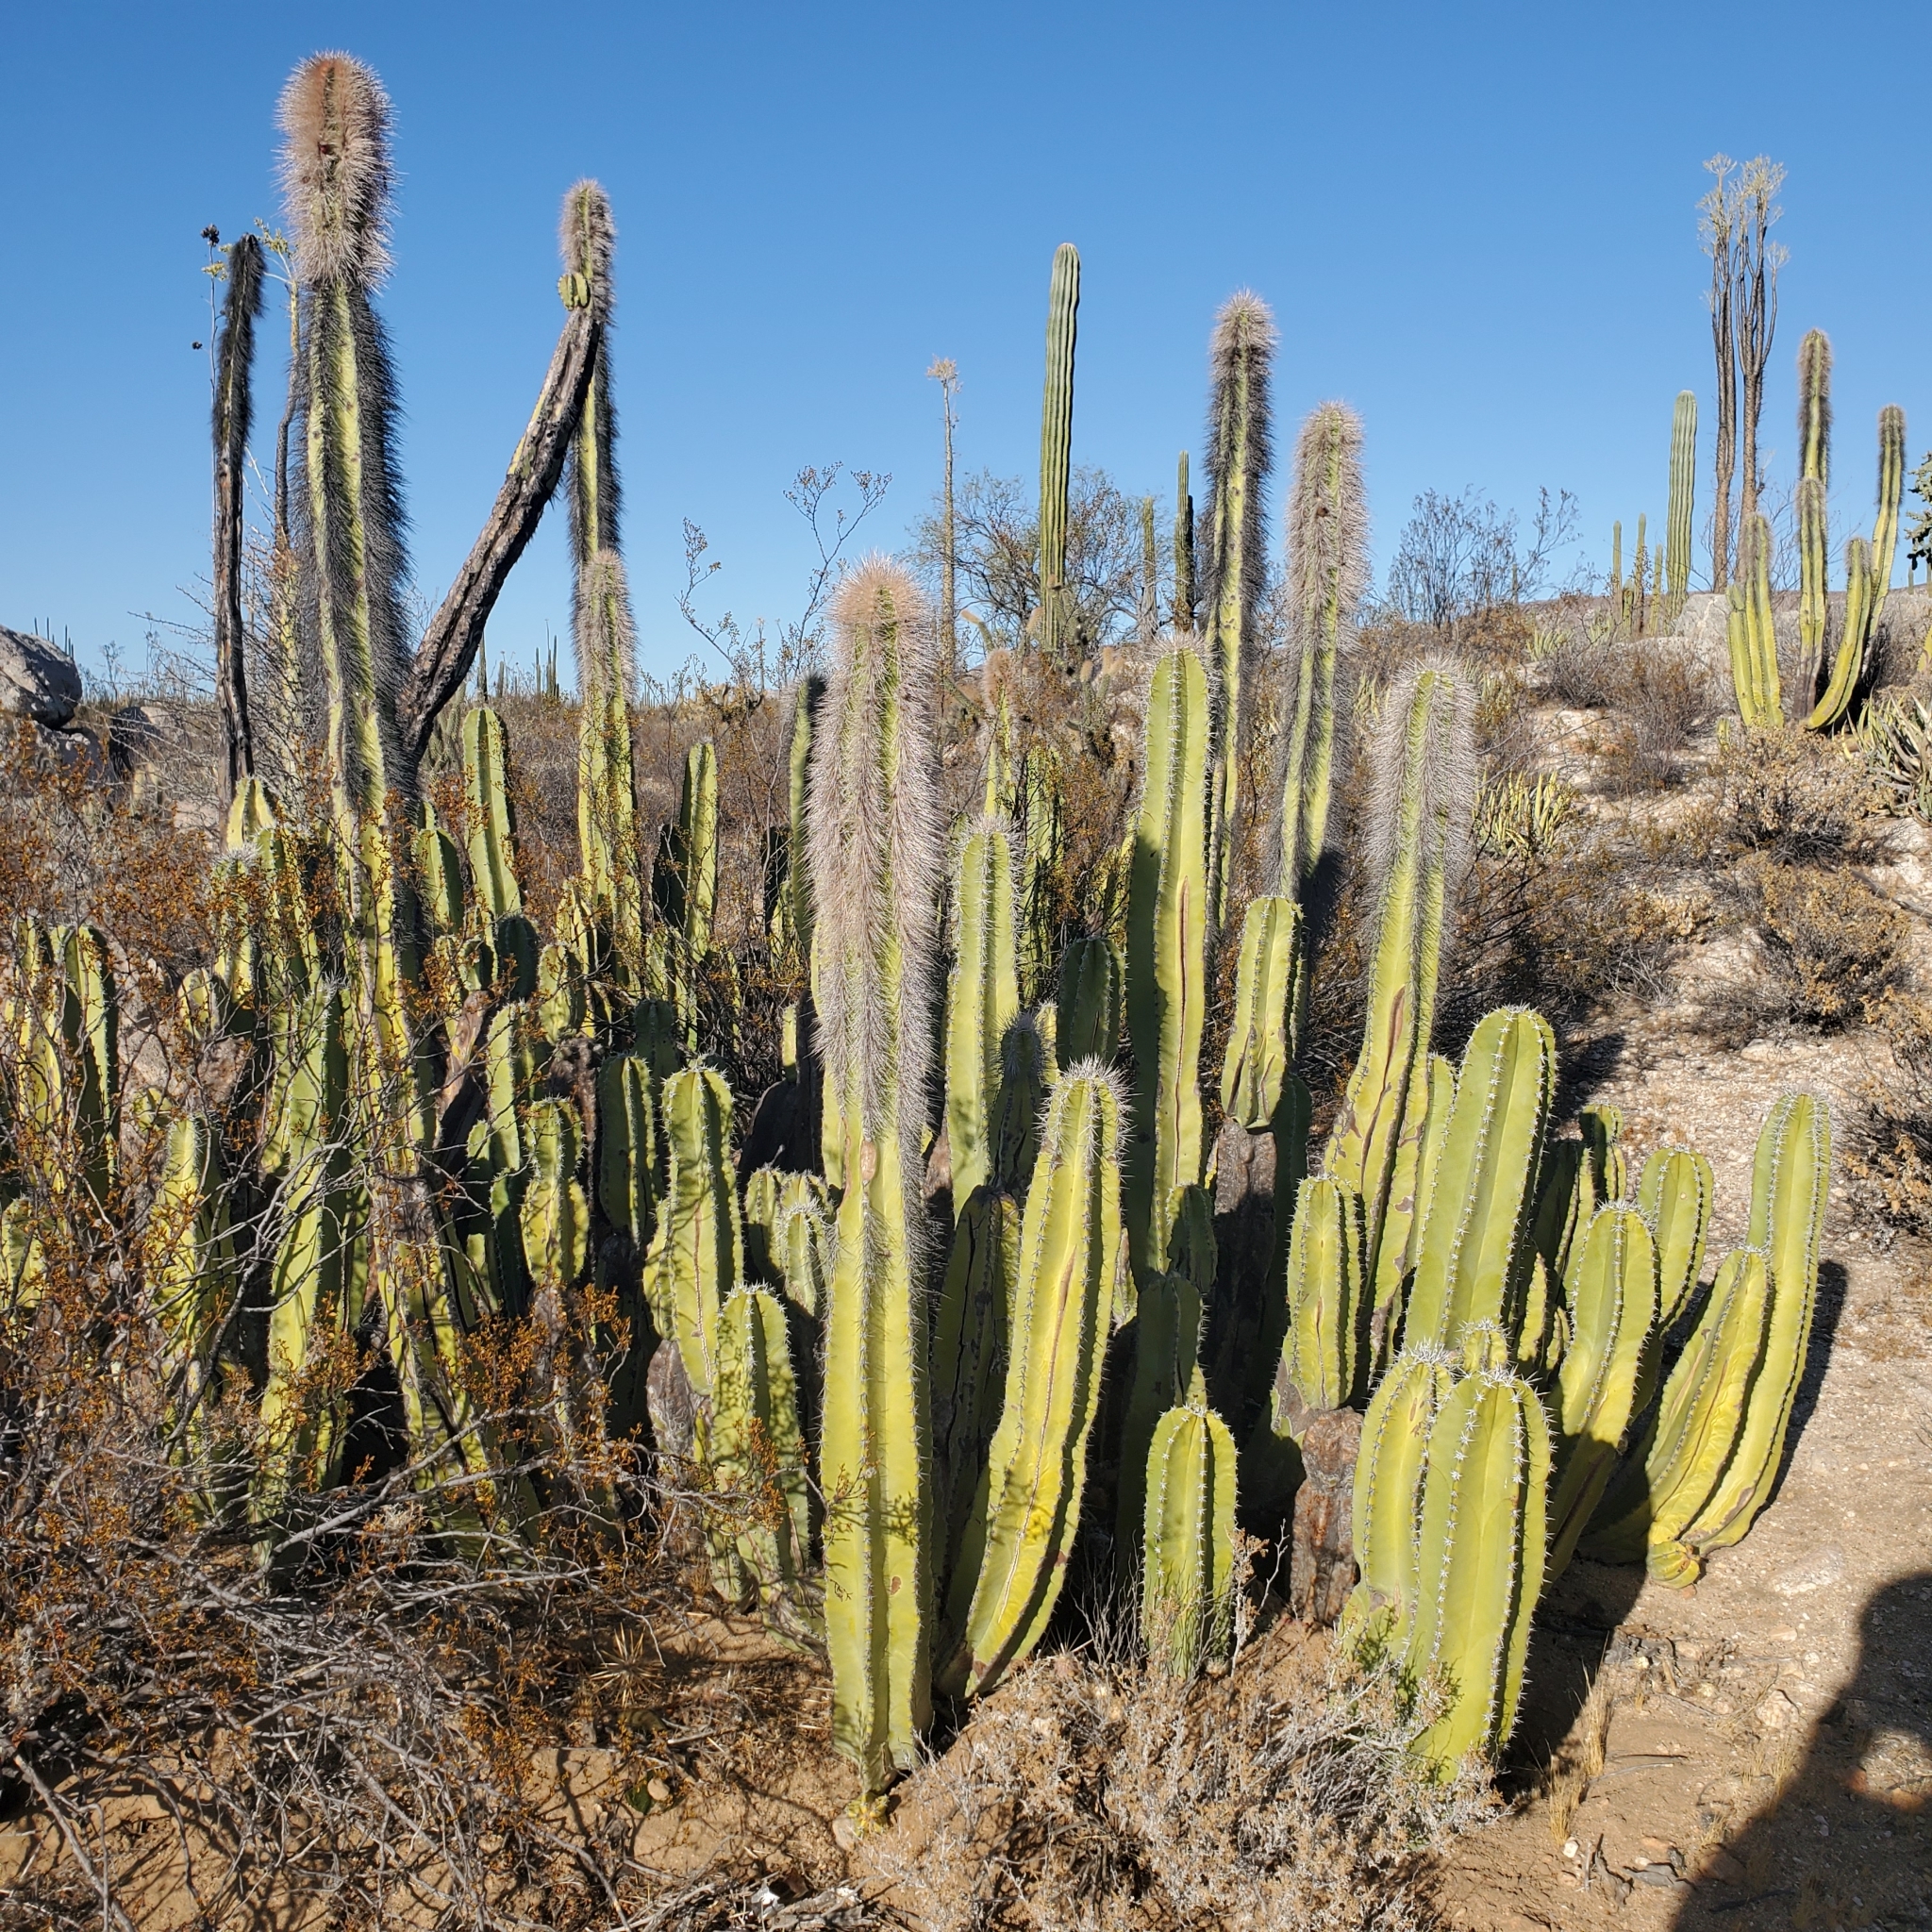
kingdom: Plantae
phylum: Tracheophyta
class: Magnoliopsida
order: Caryophyllales
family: Cactaceae
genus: Pachycereus
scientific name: Pachycereus schottii
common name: Senita cactus
